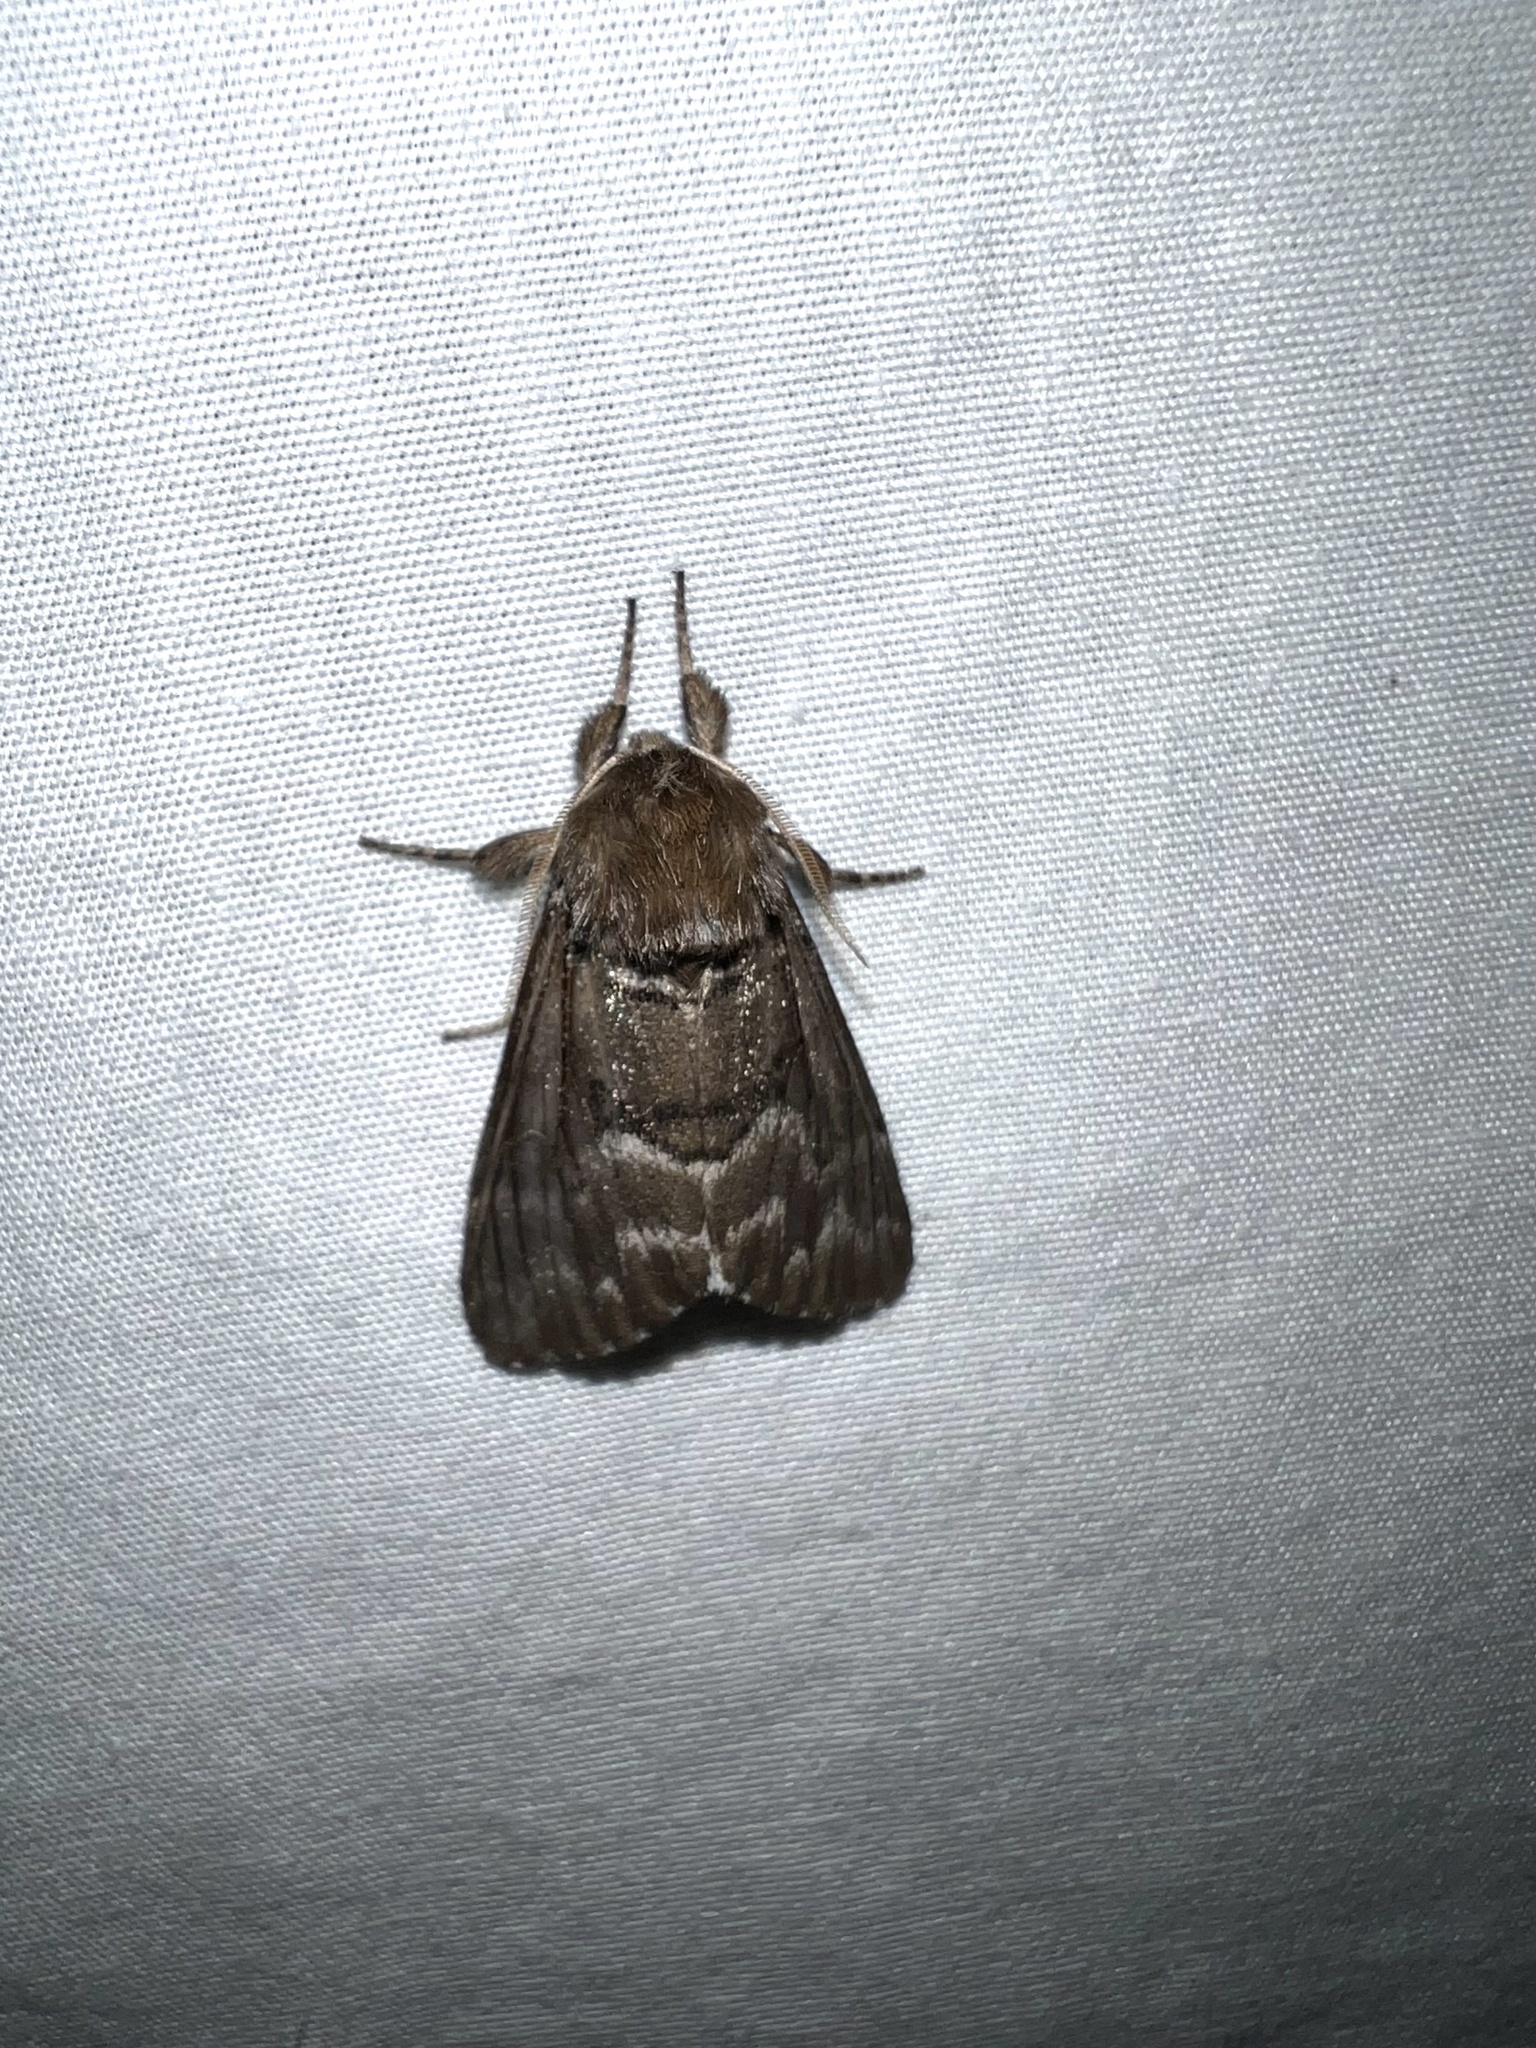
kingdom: Animalia
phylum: Arthropoda
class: Insecta
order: Lepidoptera
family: Noctuidae
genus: Panthea
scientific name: Panthea furcilla
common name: Eastern panthea moth
